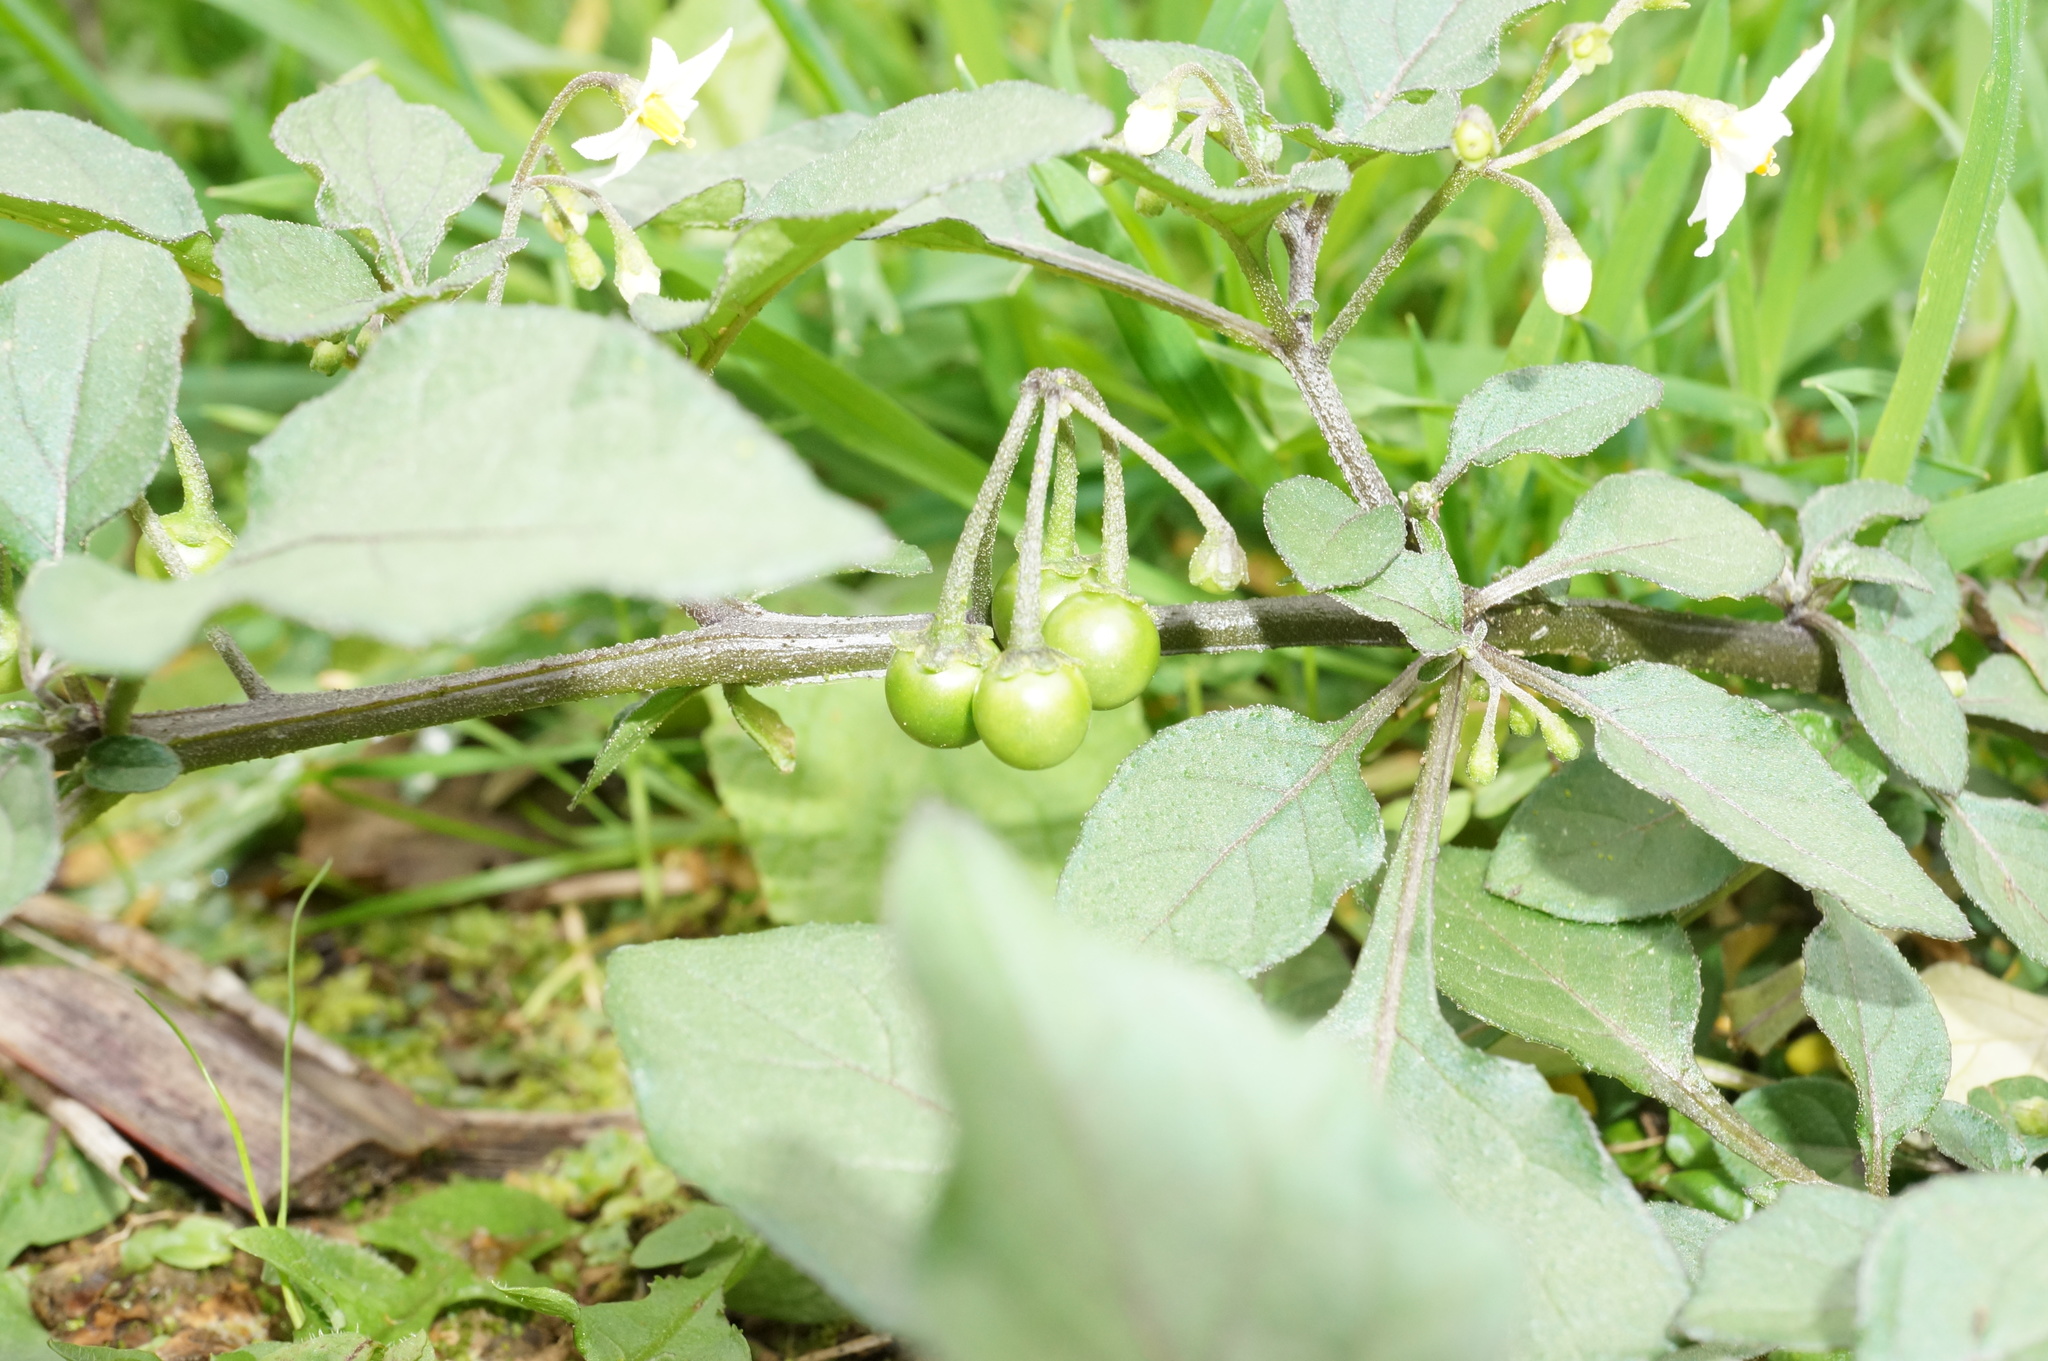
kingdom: Plantae
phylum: Tracheophyta
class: Magnoliopsida
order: Solanales
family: Solanaceae
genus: Solanum
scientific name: Solanum nigrum
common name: Black nightshade
